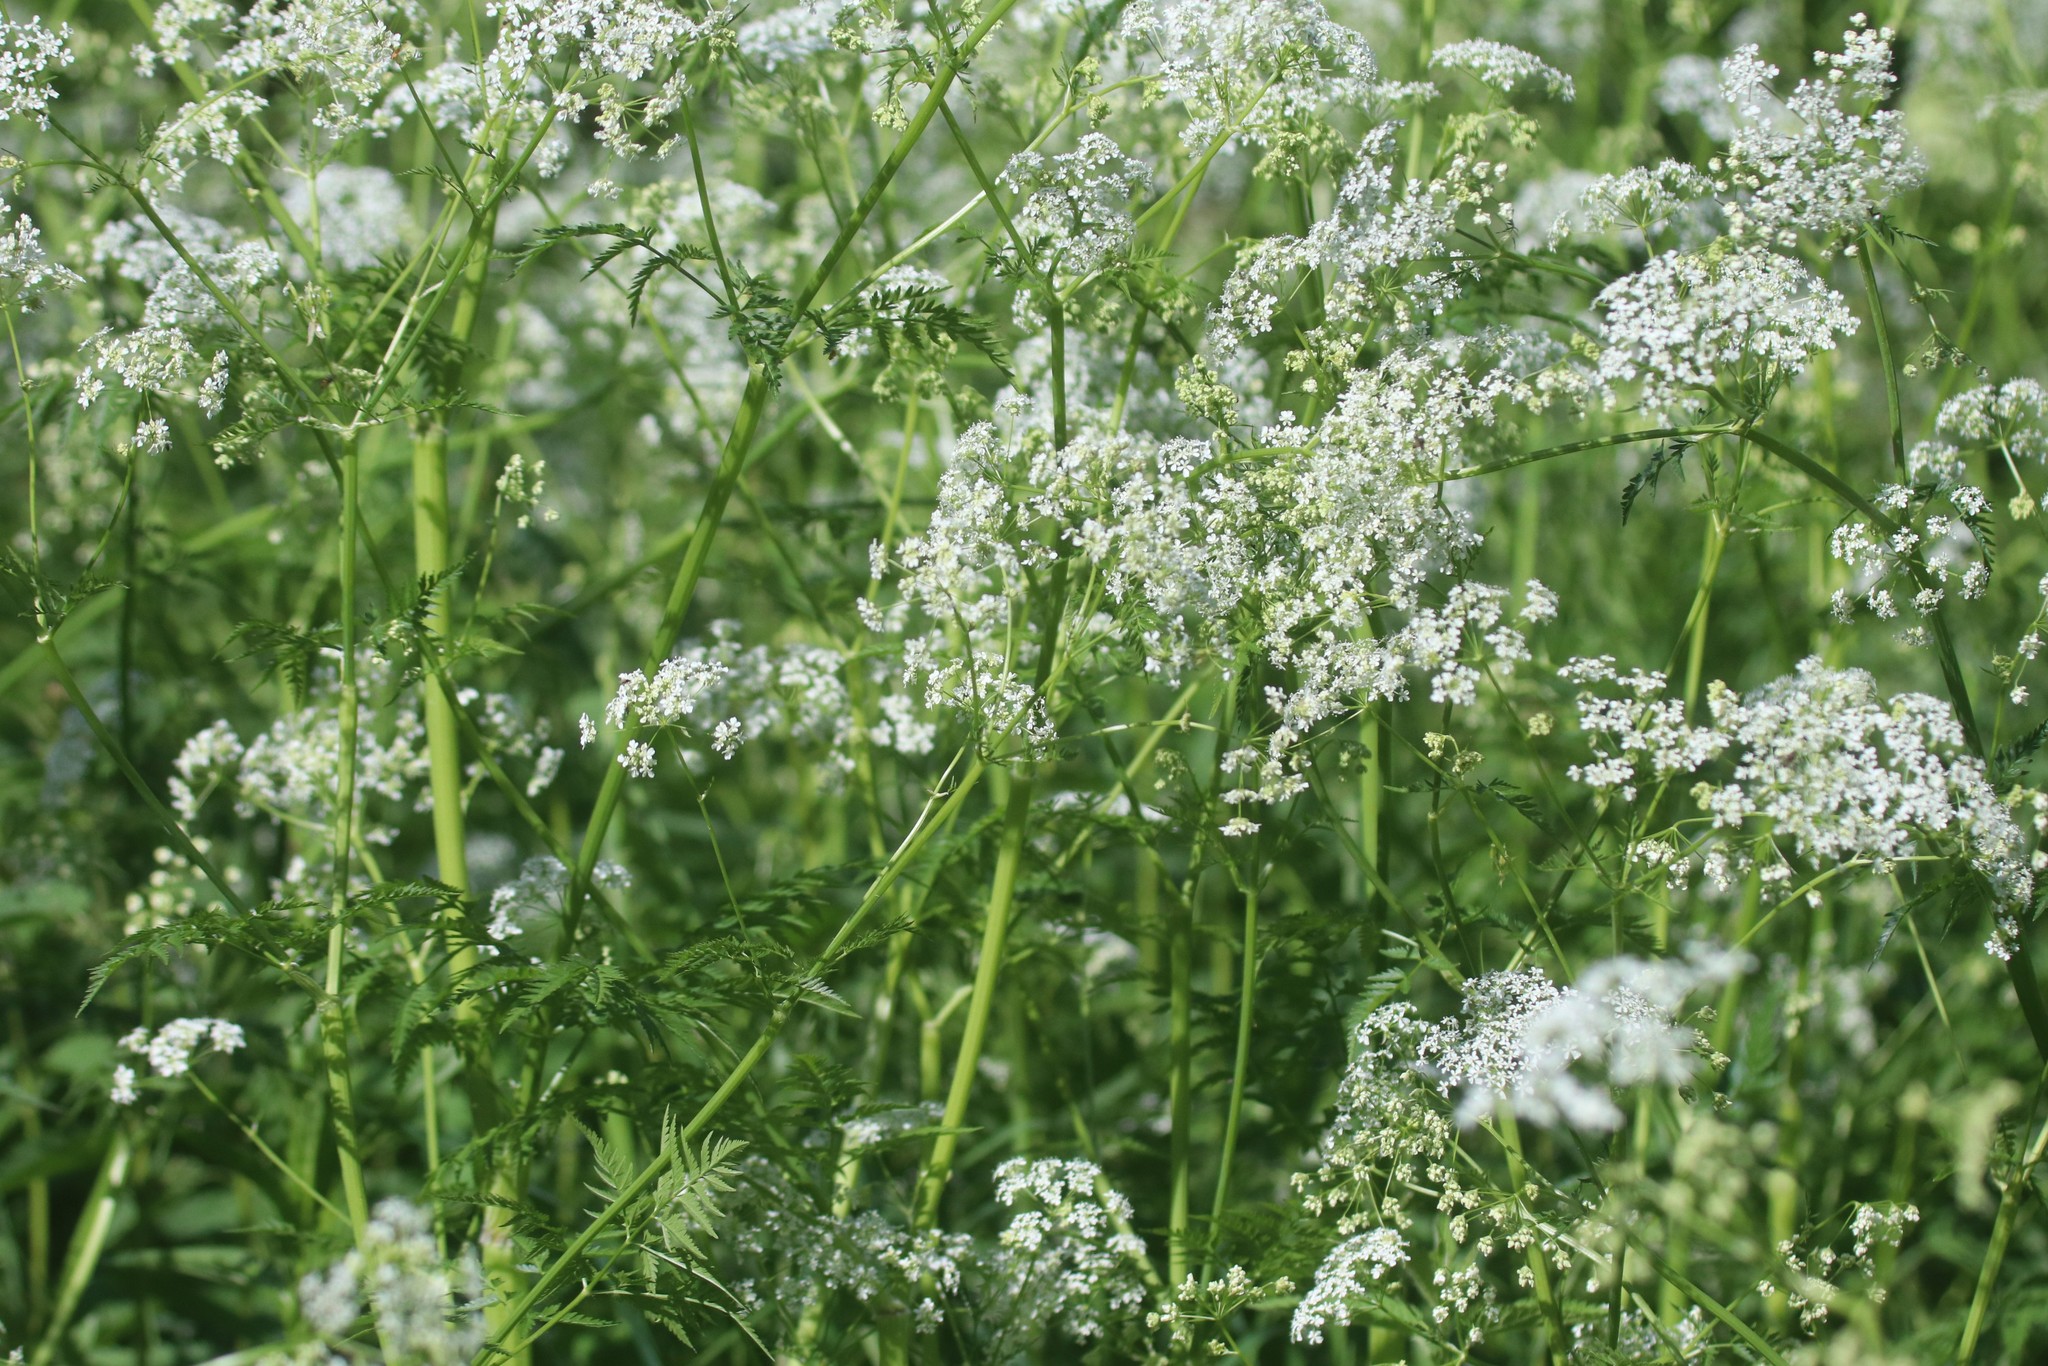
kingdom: Plantae
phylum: Tracheophyta
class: Magnoliopsida
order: Apiales
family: Apiaceae
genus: Anthriscus
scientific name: Anthriscus sylvestris
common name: Cow parsley
